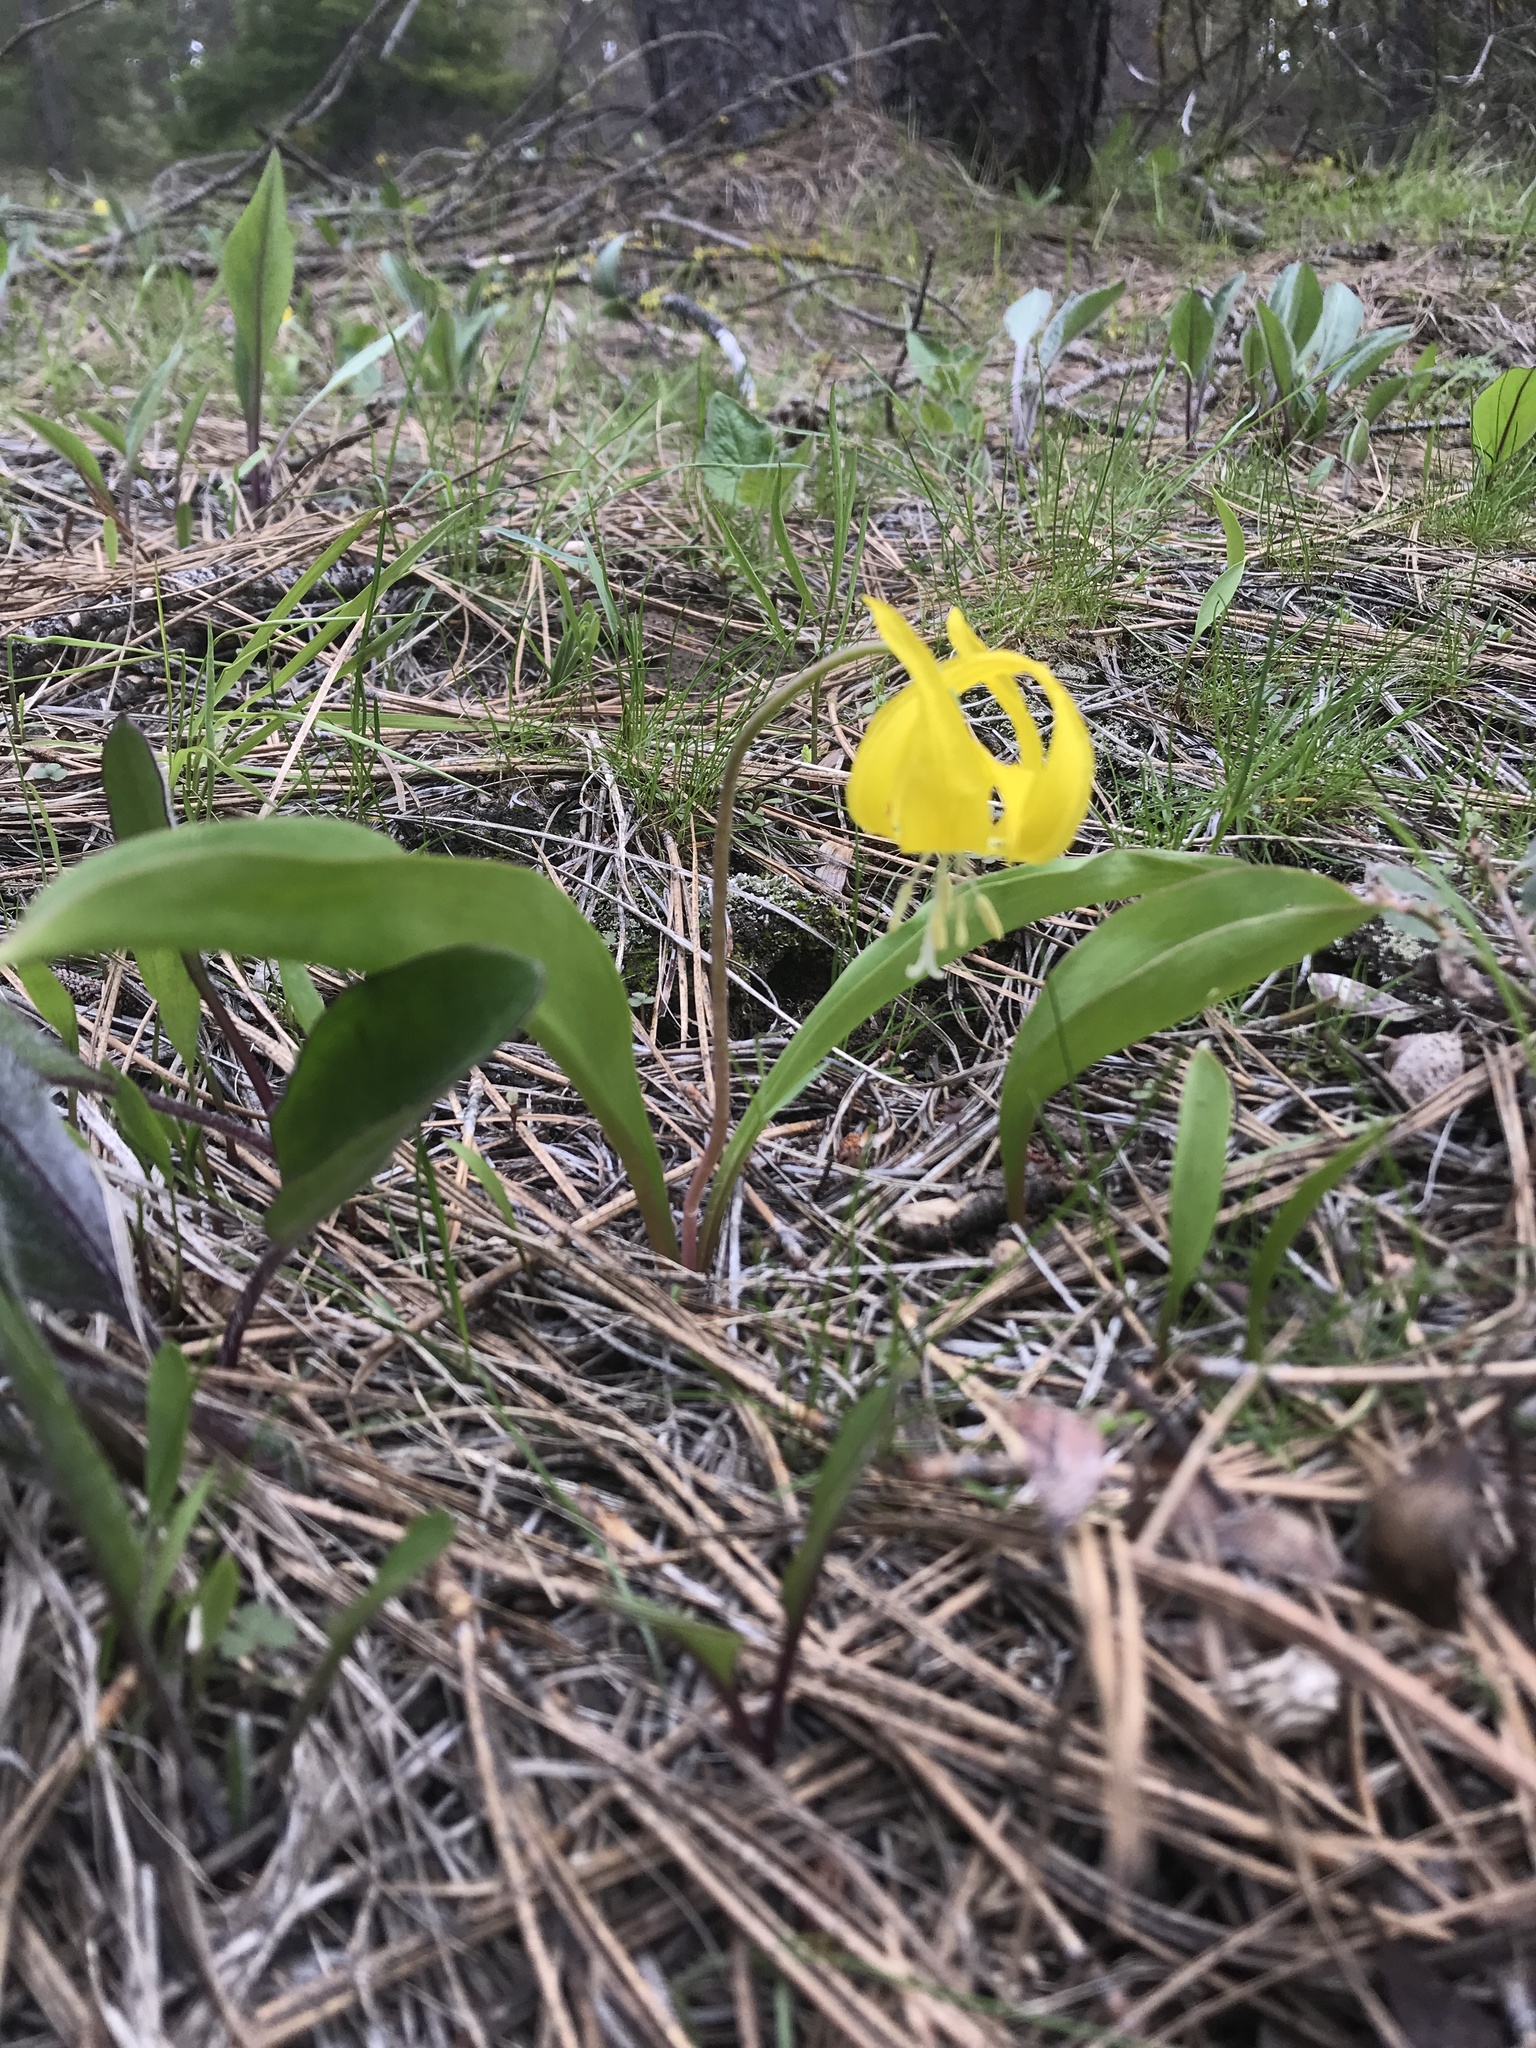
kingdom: Plantae
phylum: Tracheophyta
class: Liliopsida
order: Liliales
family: Liliaceae
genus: Erythronium
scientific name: Erythronium grandiflorum
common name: Avalanche-lily
